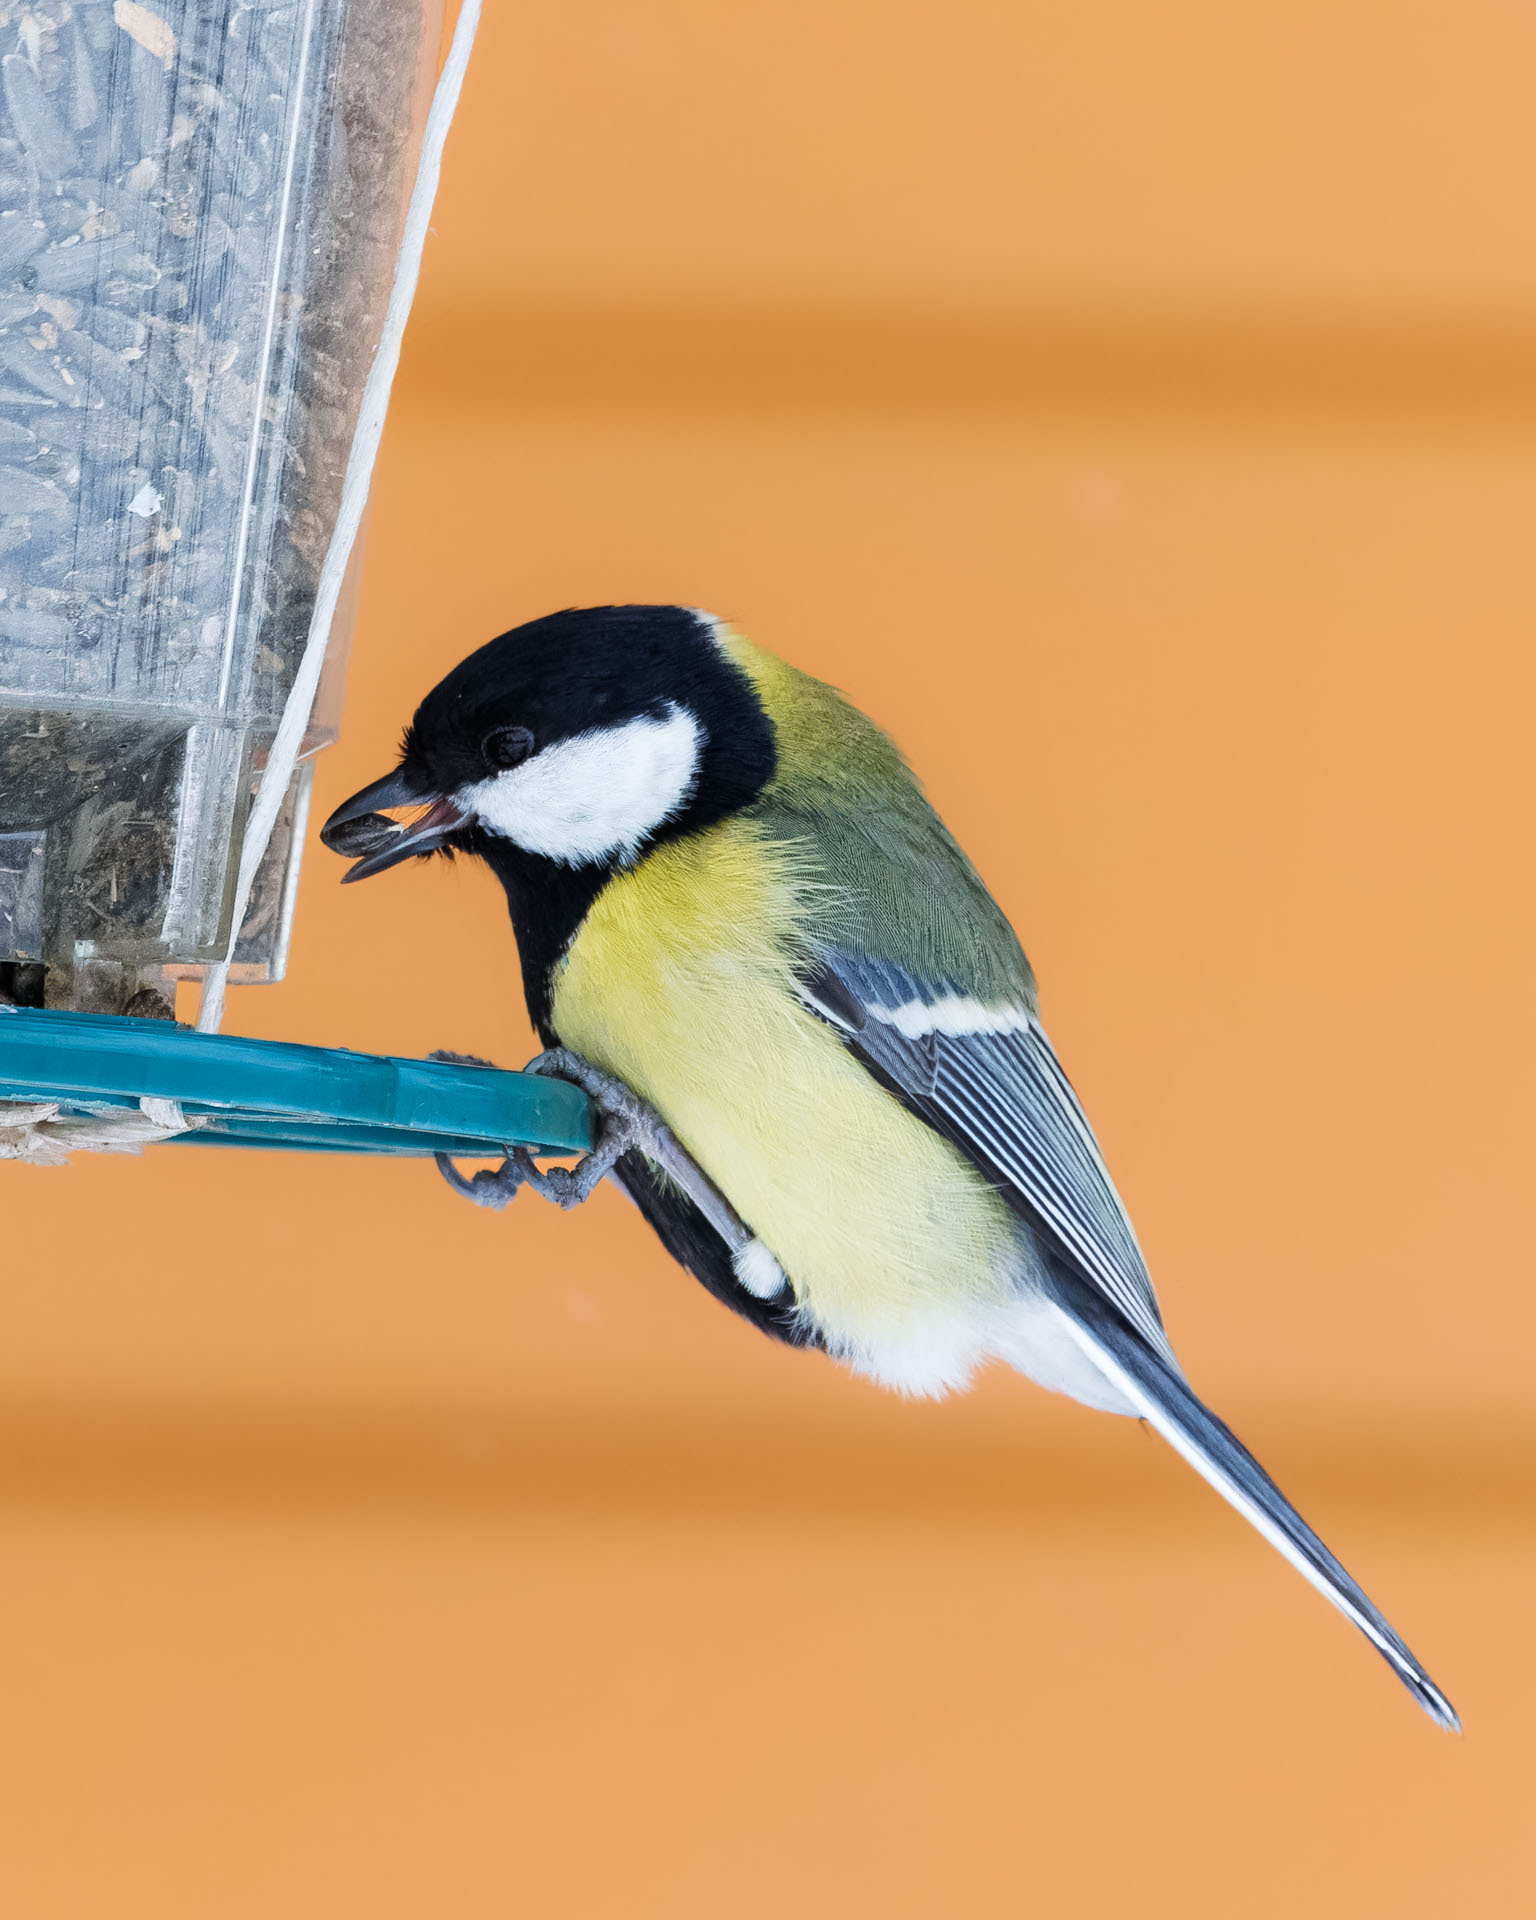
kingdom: Animalia
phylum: Chordata
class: Aves
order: Passeriformes
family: Paridae
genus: Parus
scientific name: Parus major
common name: Great tit
